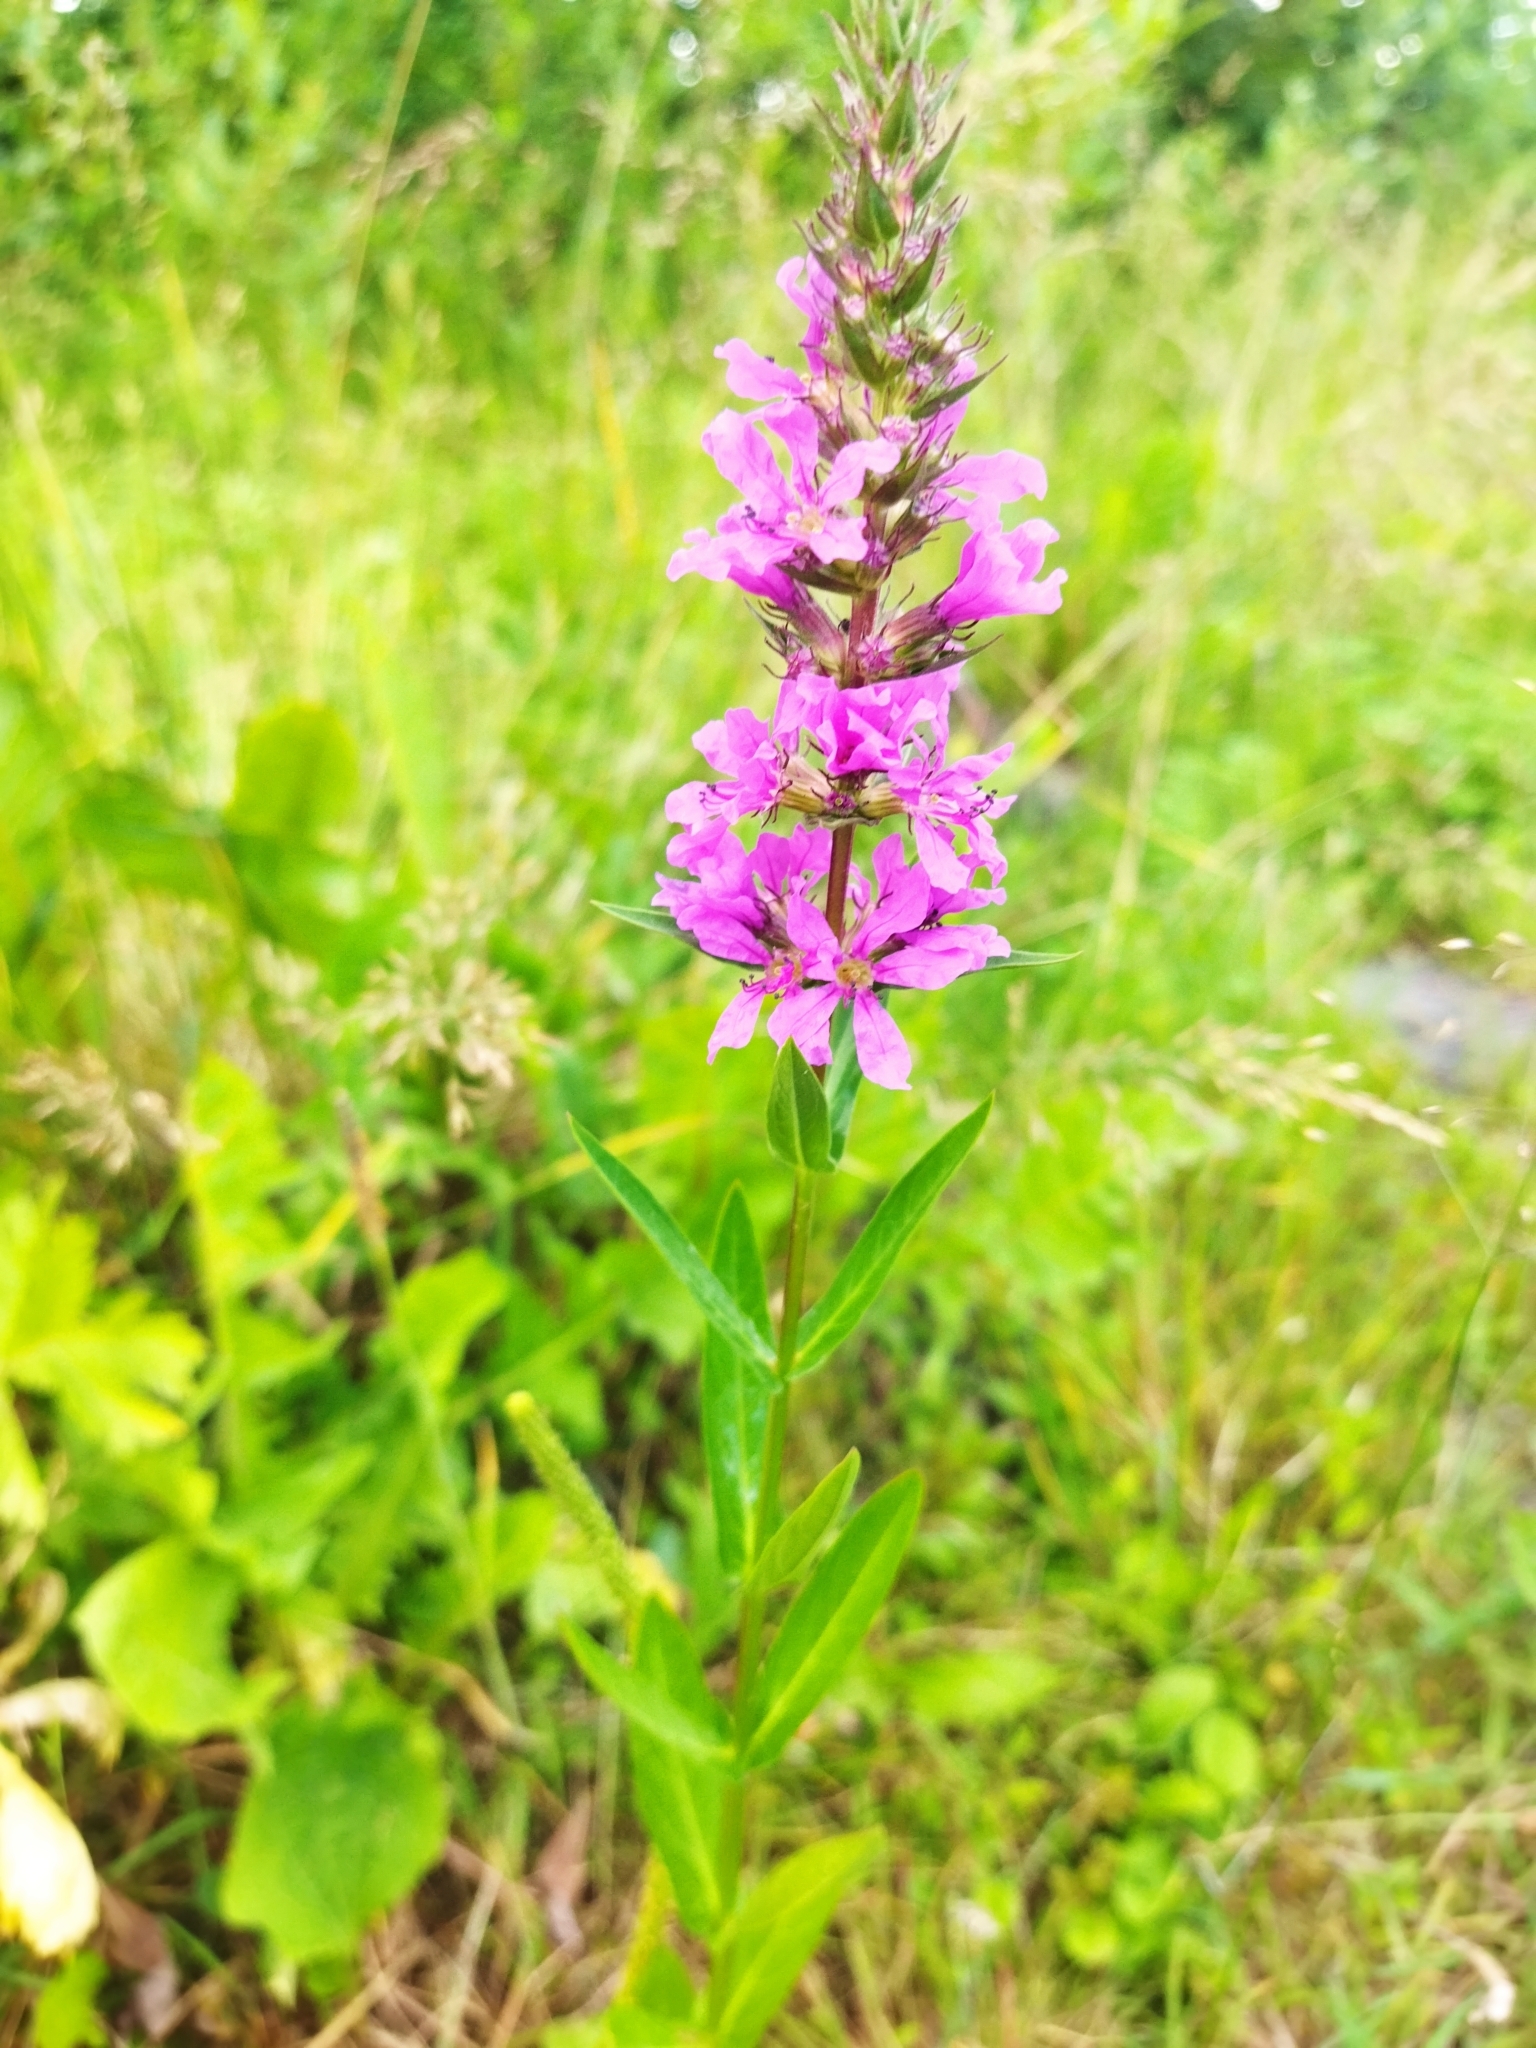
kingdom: Plantae
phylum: Tracheophyta
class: Magnoliopsida
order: Myrtales
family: Lythraceae
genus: Lythrum
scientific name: Lythrum salicaria
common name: Purple loosestrife
